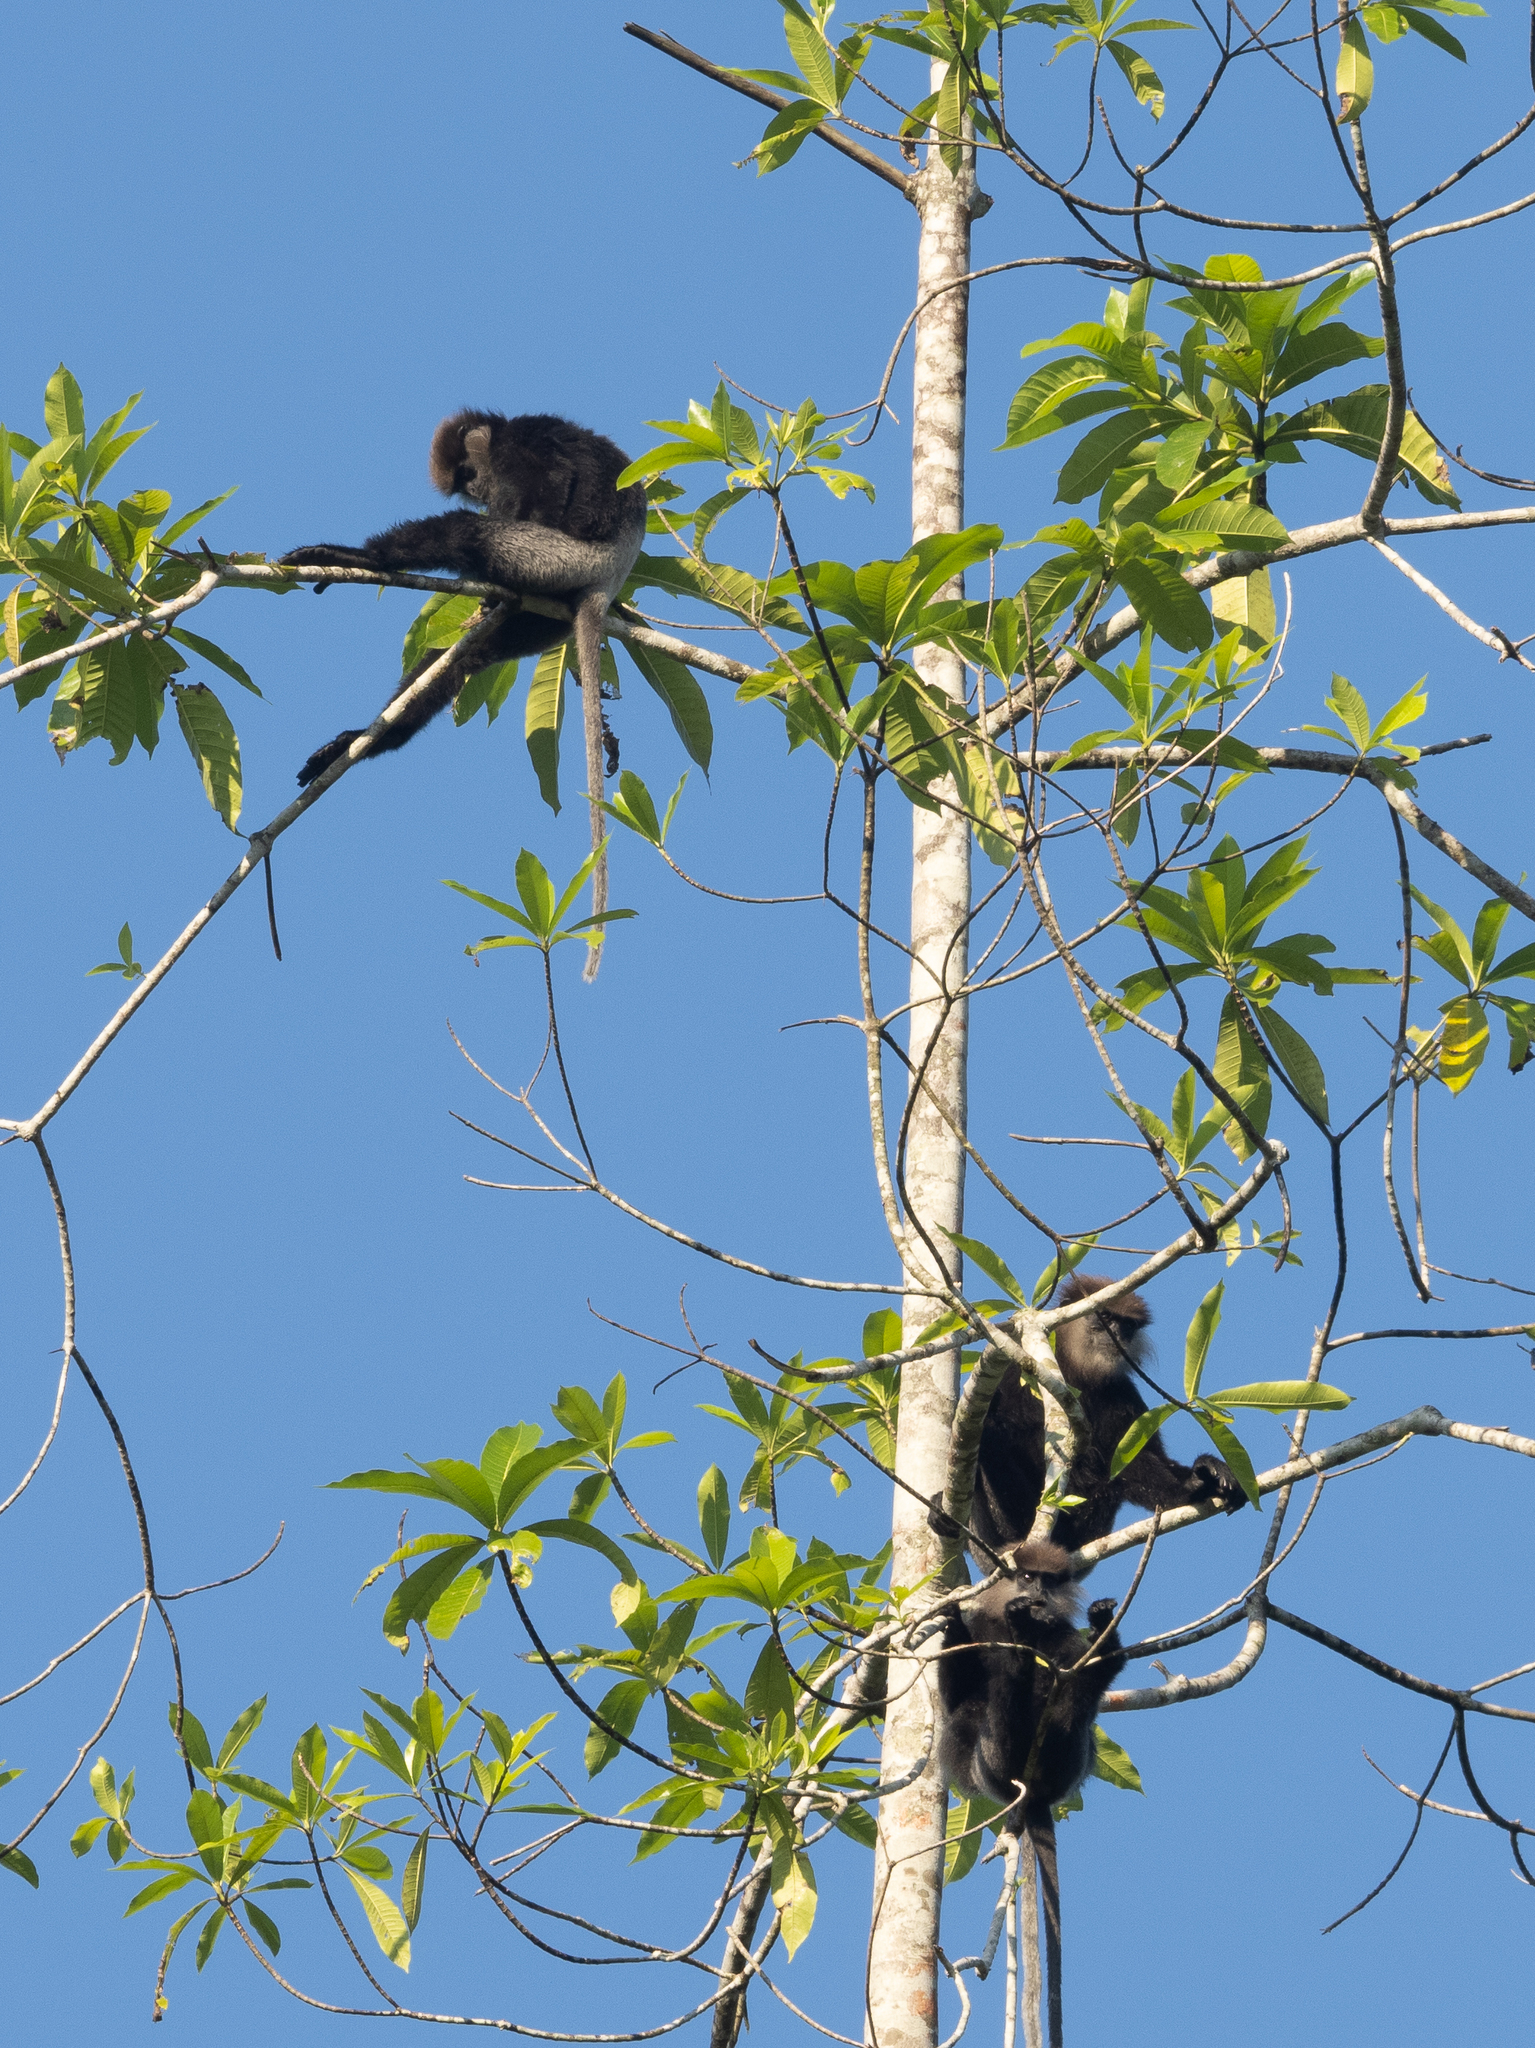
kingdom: Animalia
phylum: Chordata
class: Mammalia
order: Primates
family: Cercopithecidae
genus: Semnopithecus
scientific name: Semnopithecus vetulus
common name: Purple-faced langur
